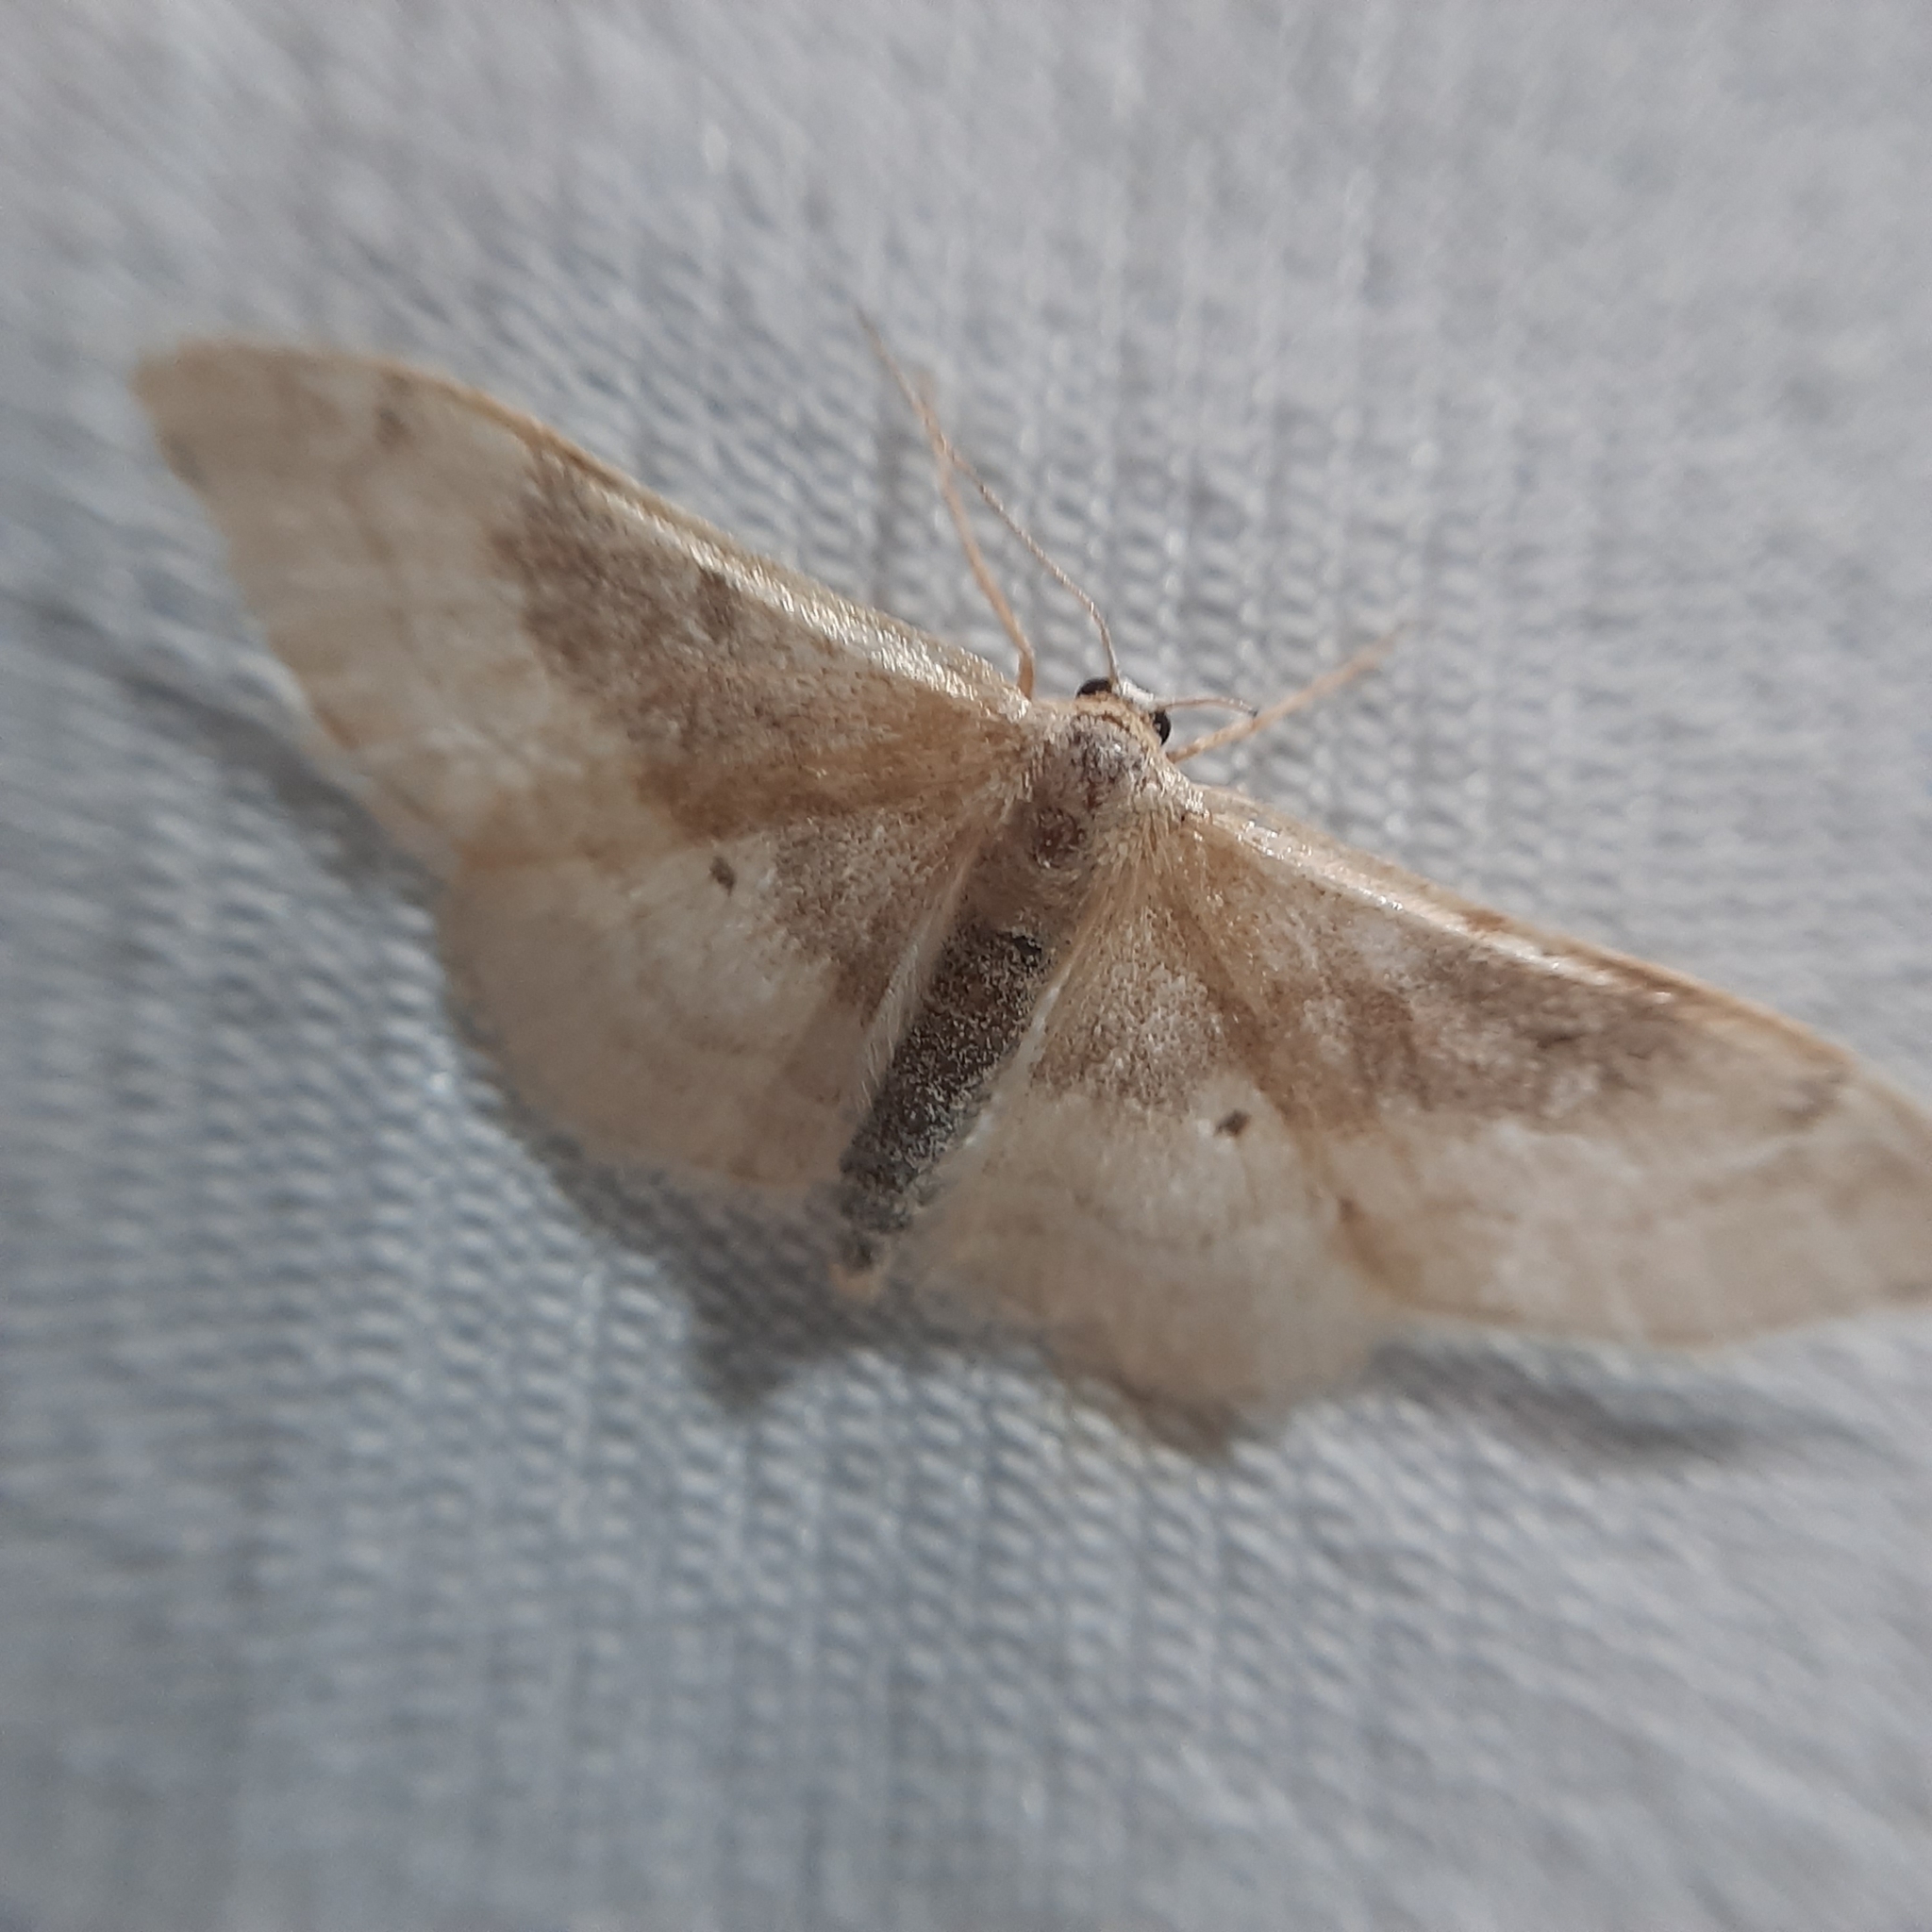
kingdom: Animalia
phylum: Arthropoda
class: Insecta
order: Lepidoptera
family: Geometridae
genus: Idaea
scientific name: Idaea degeneraria
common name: Portland ribbon wave
